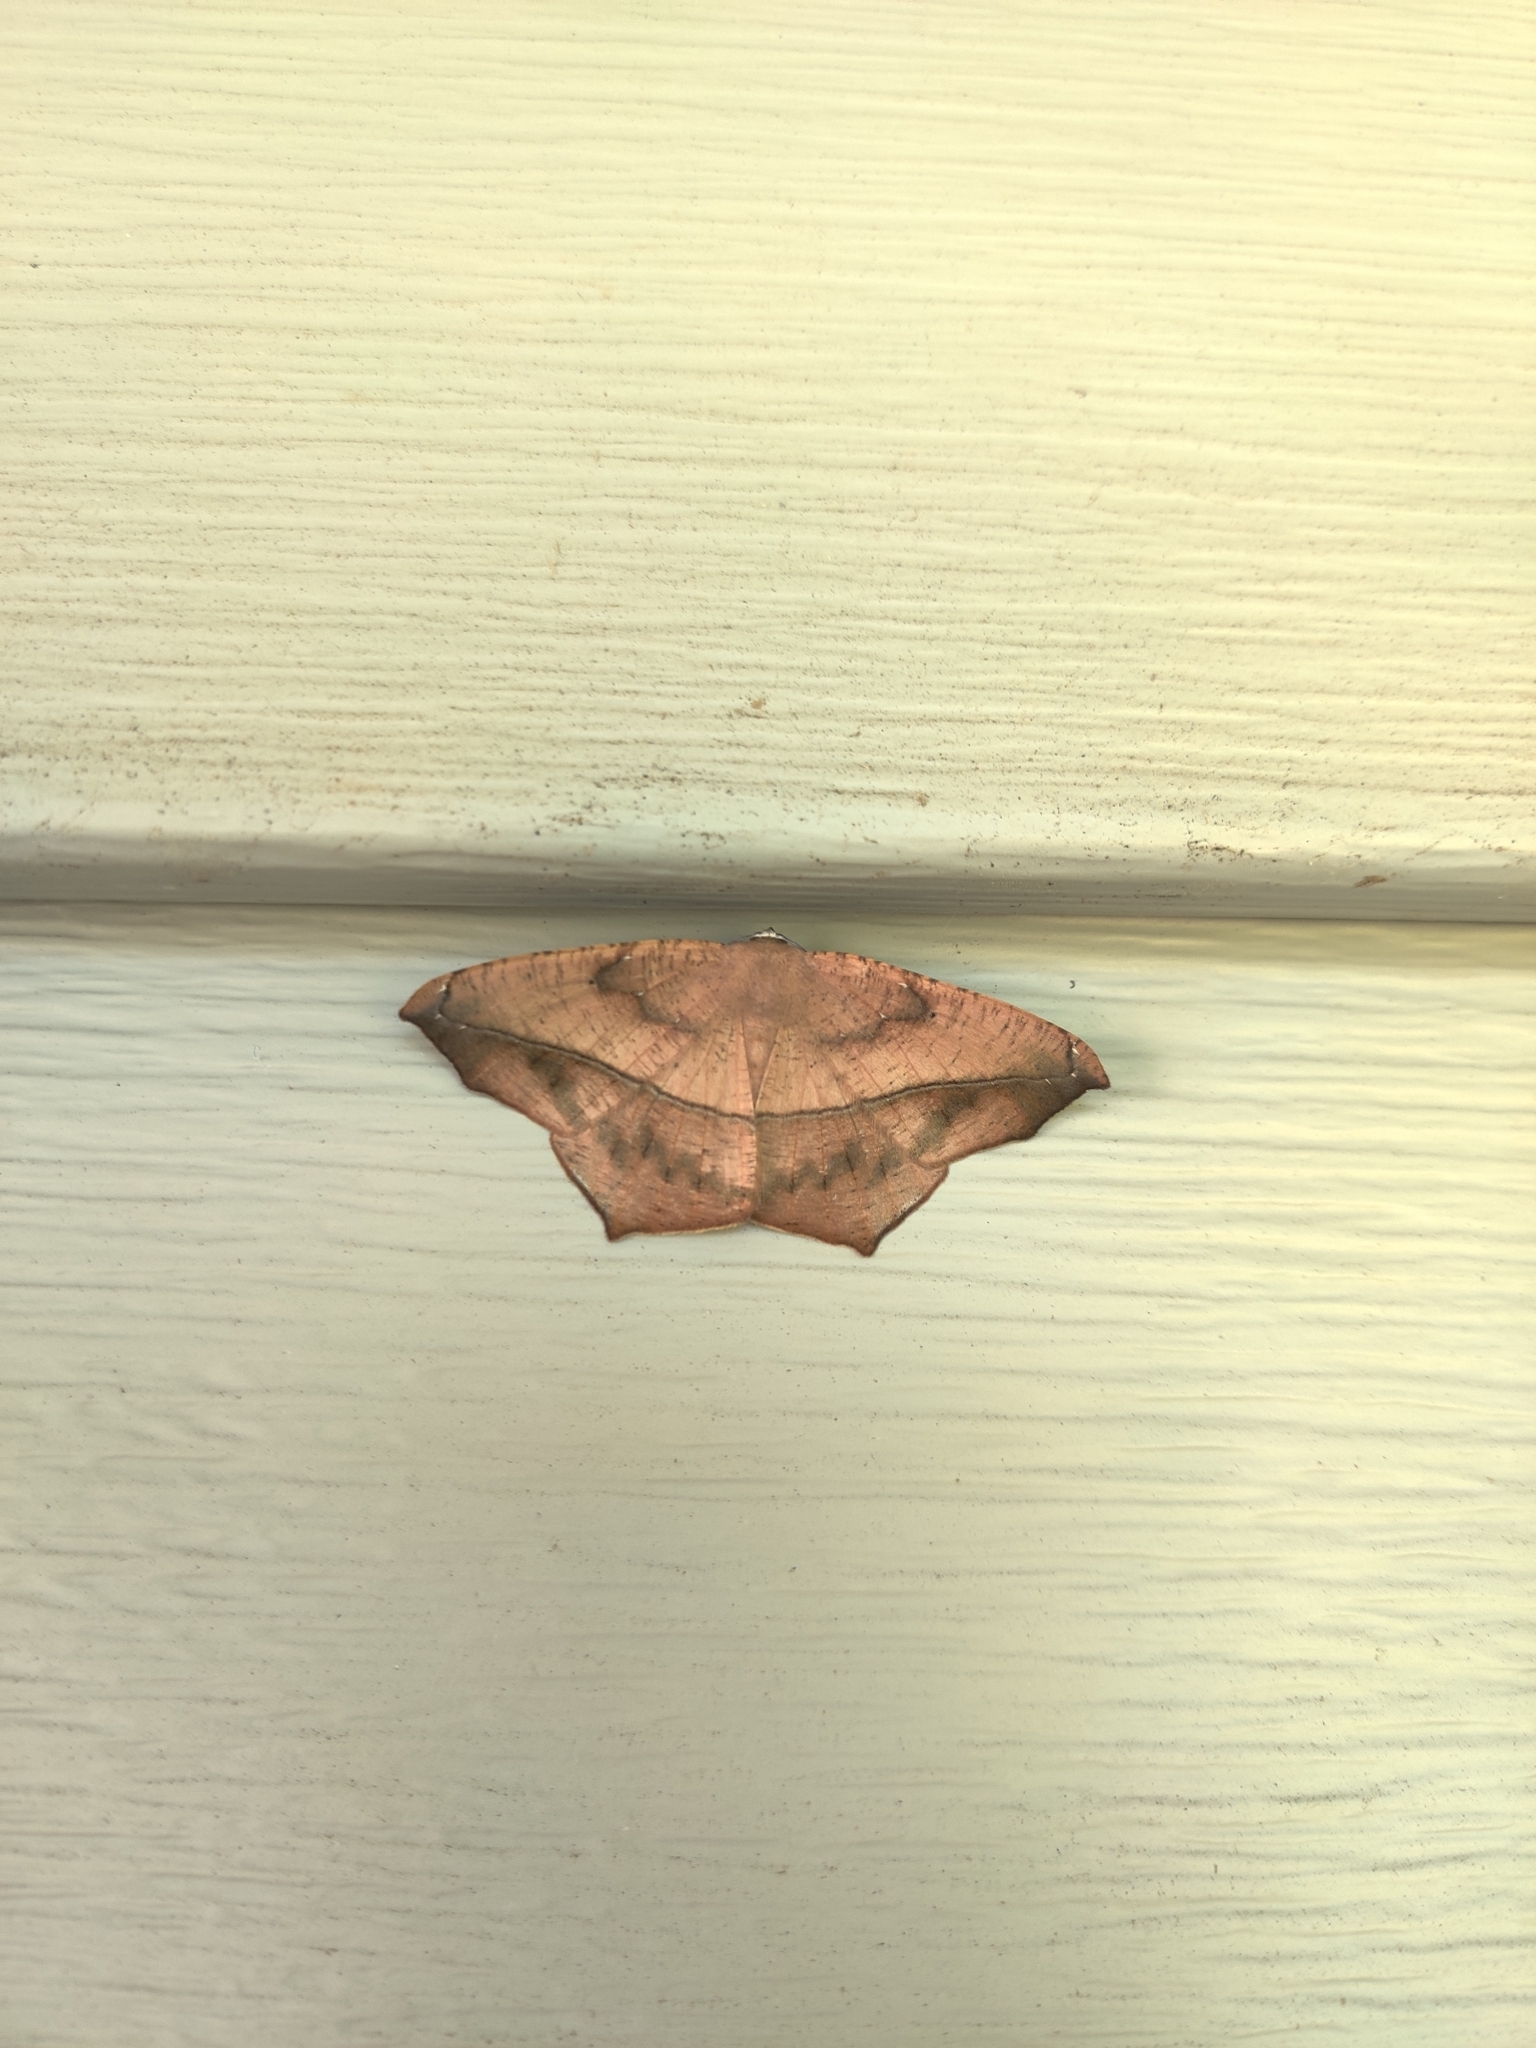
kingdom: Animalia
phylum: Arthropoda
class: Insecta
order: Lepidoptera
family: Geometridae
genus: Prochoerodes
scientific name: Prochoerodes lineola
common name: Large maple spanworm
